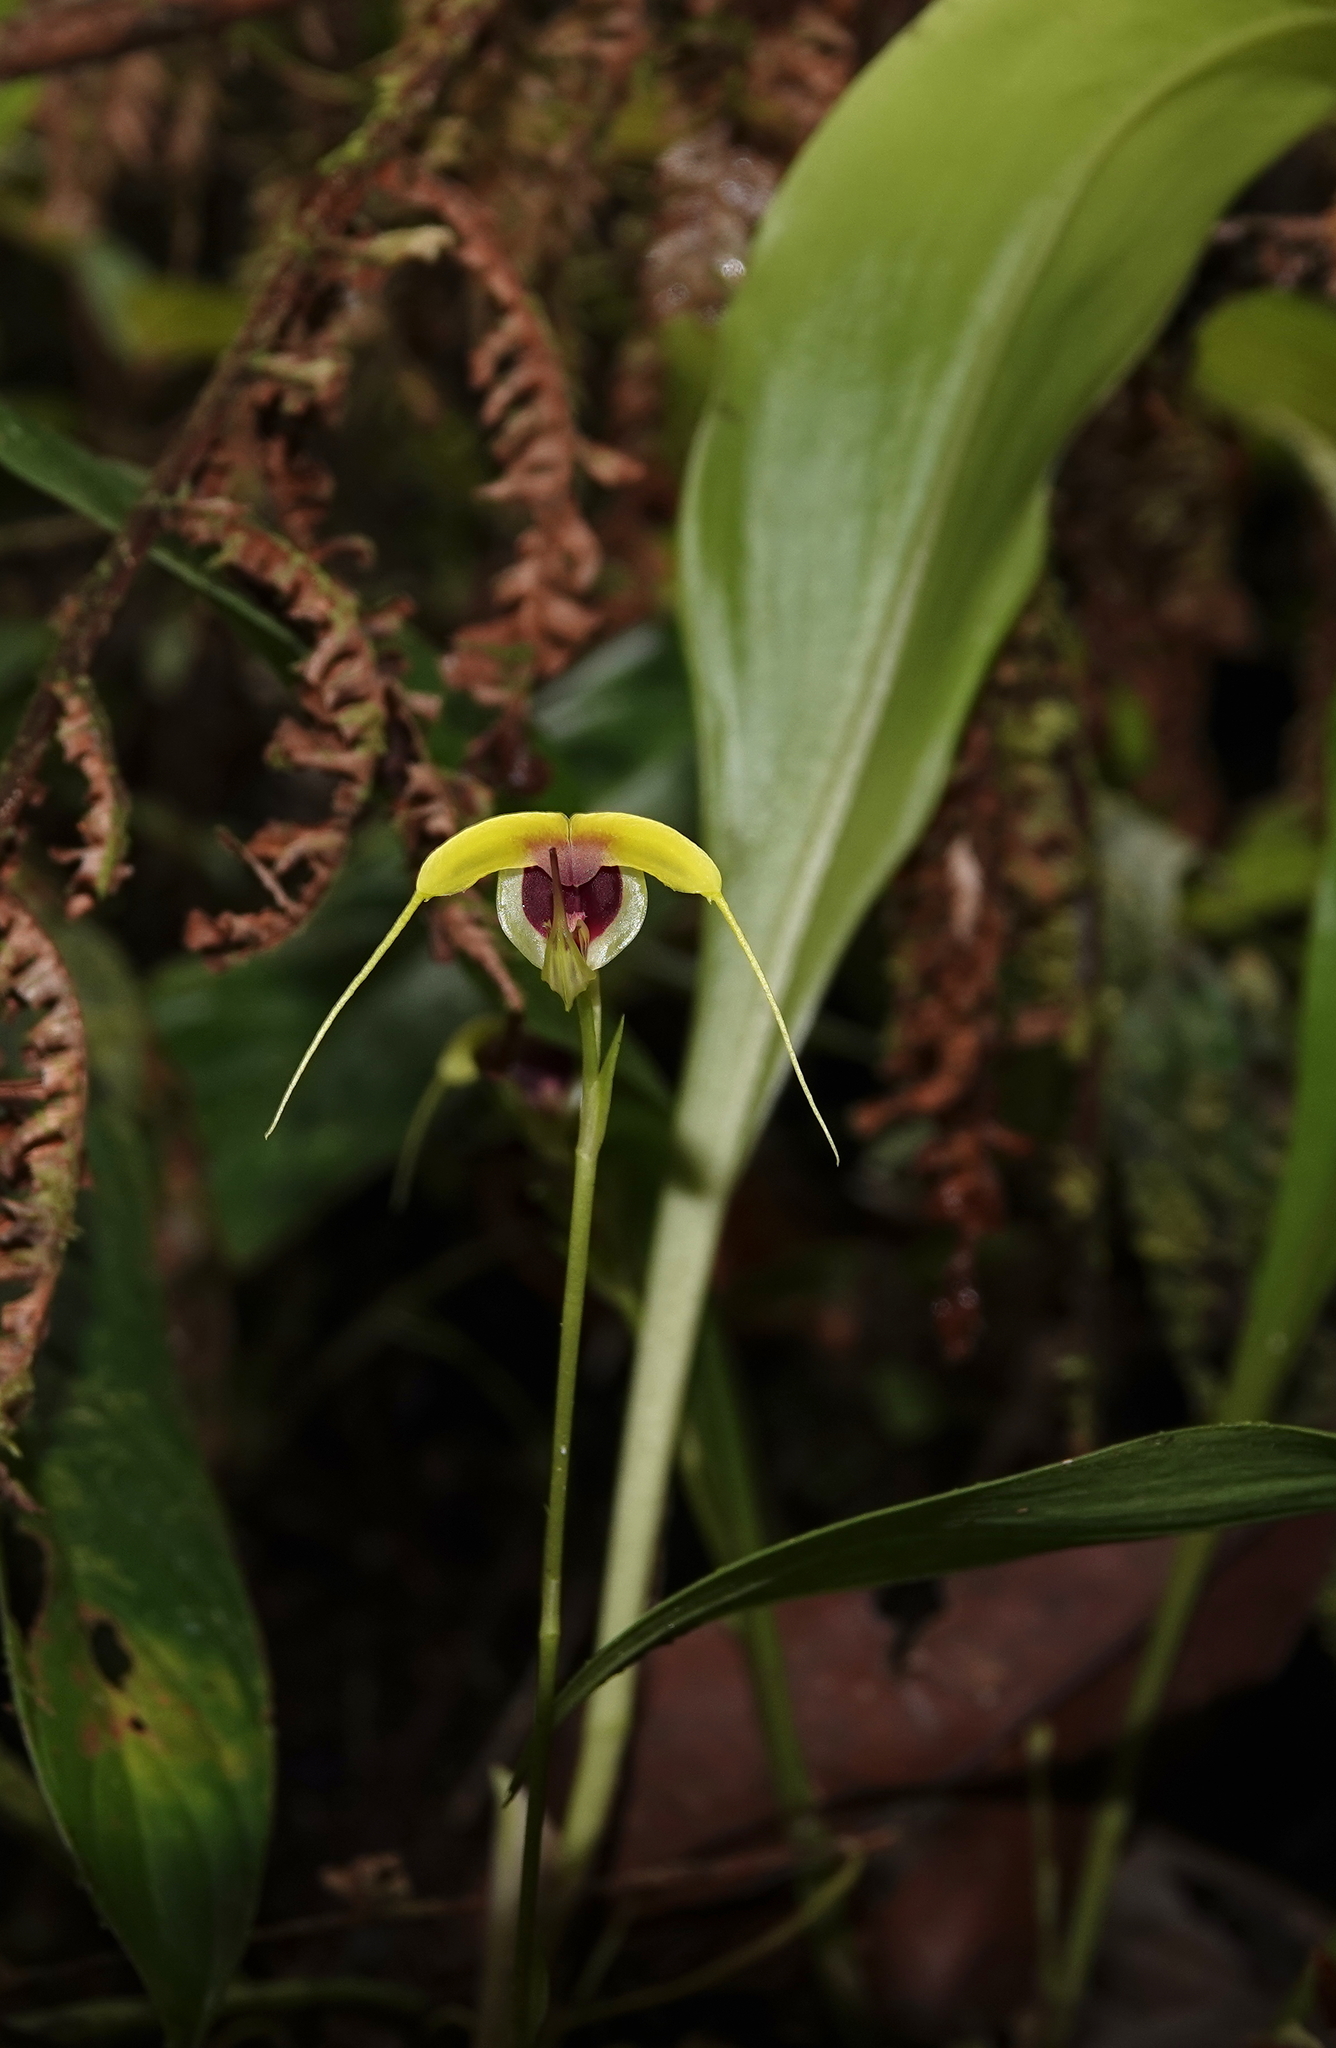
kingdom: Plantae
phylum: Tracheophyta
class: Liliopsida
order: Asparagales
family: Orchidaceae
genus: Scaphosepalum
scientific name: Scaphosepalum grande
